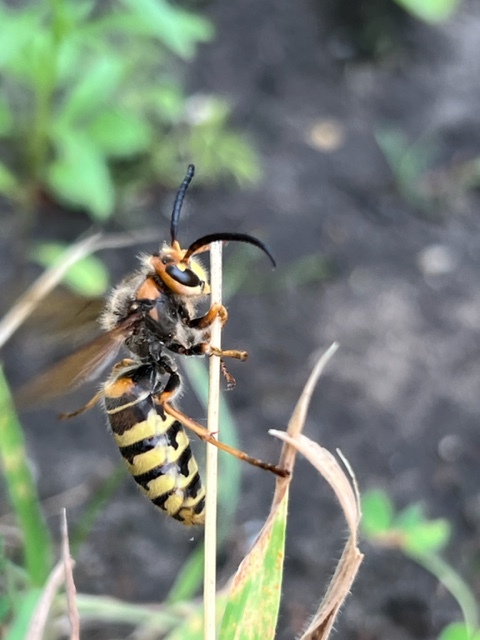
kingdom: Animalia
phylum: Arthropoda
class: Insecta
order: Hymenoptera
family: Vespidae
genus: Vespa
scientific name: Vespa crabro
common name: Hornet
